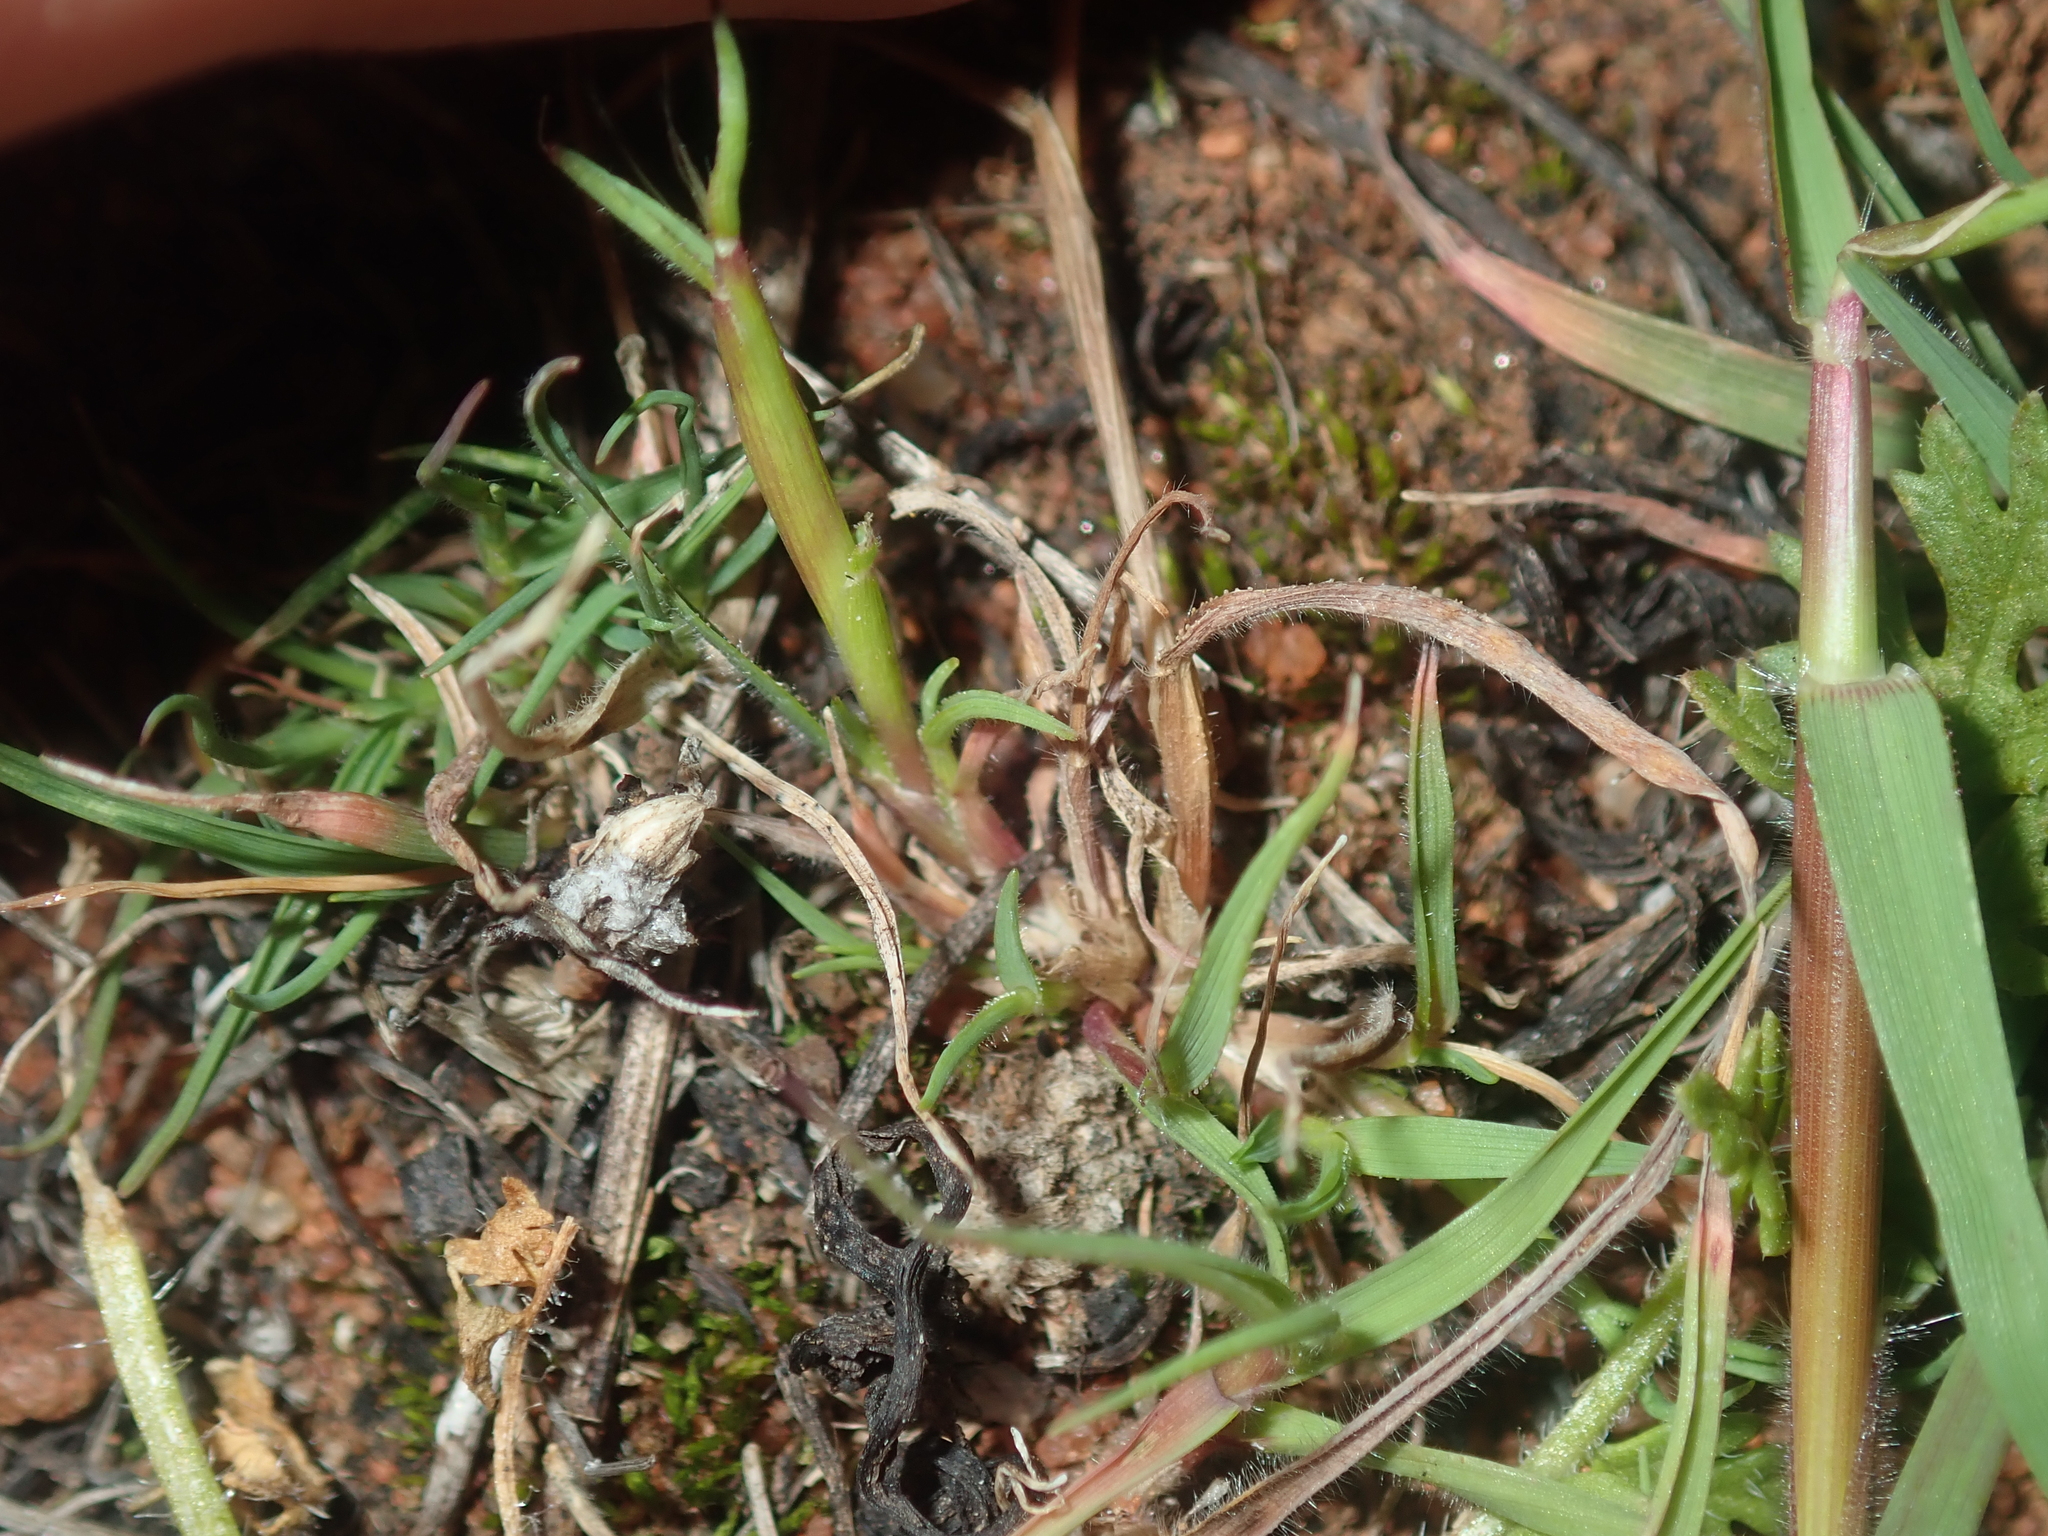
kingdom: Plantae
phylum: Tracheophyta
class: Liliopsida
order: Poales
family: Poaceae
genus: Pentameris
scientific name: Pentameris airoides
